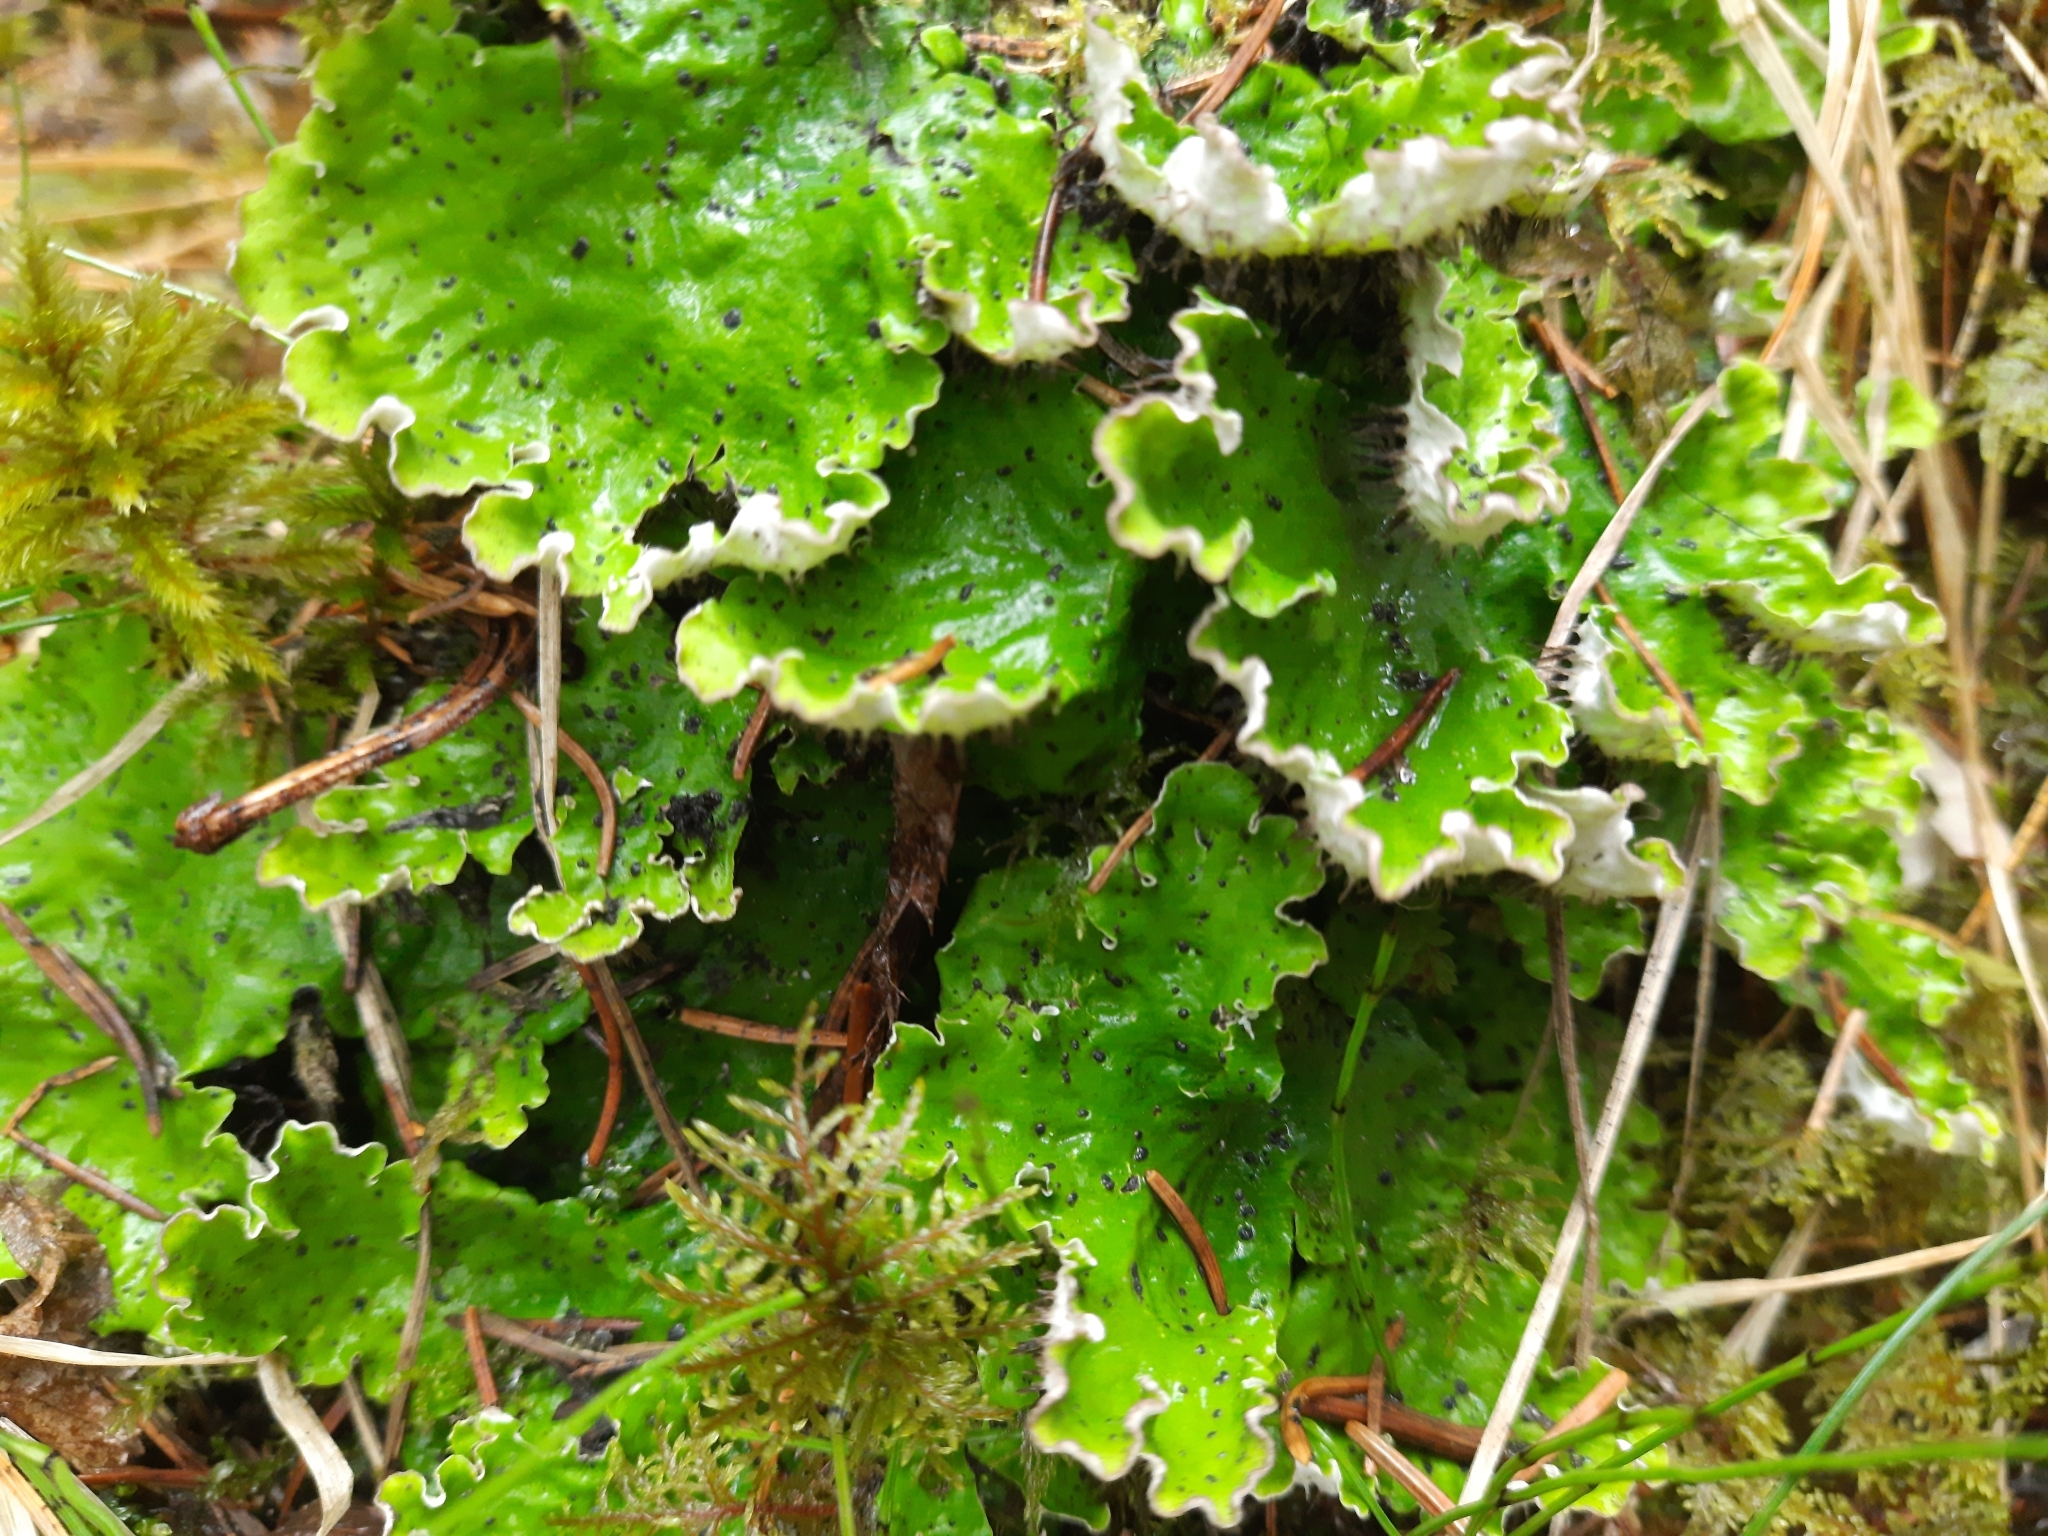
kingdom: Fungi
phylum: Ascomycota
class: Lecanoromycetes
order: Peltigerales
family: Peltigeraceae
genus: Peltigera
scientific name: Peltigera aphthosa
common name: Common freckle pelt lichen
